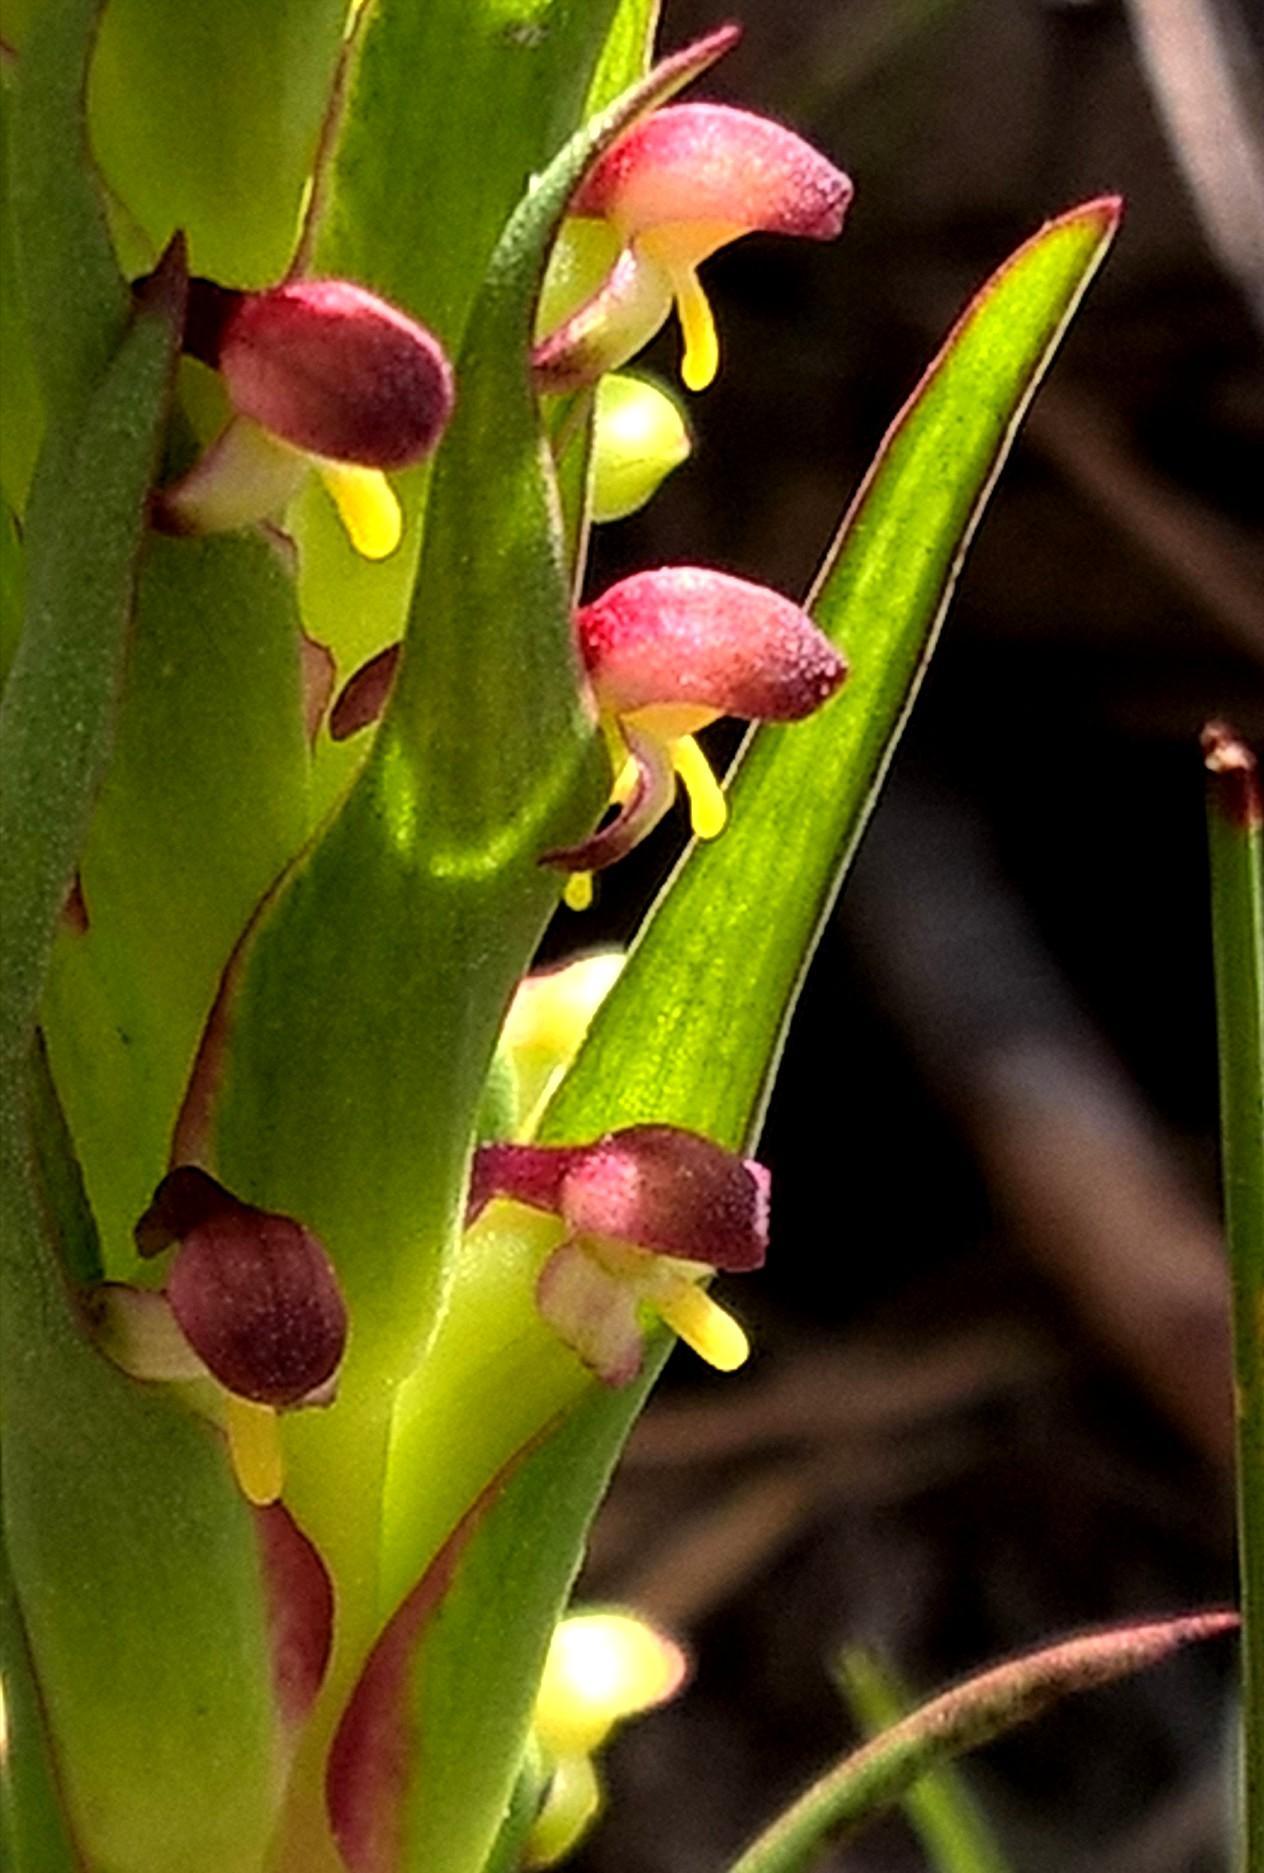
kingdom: Plantae
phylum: Tracheophyta
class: Liliopsida
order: Asparagales
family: Orchidaceae
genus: Disa
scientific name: Disa bracteata
